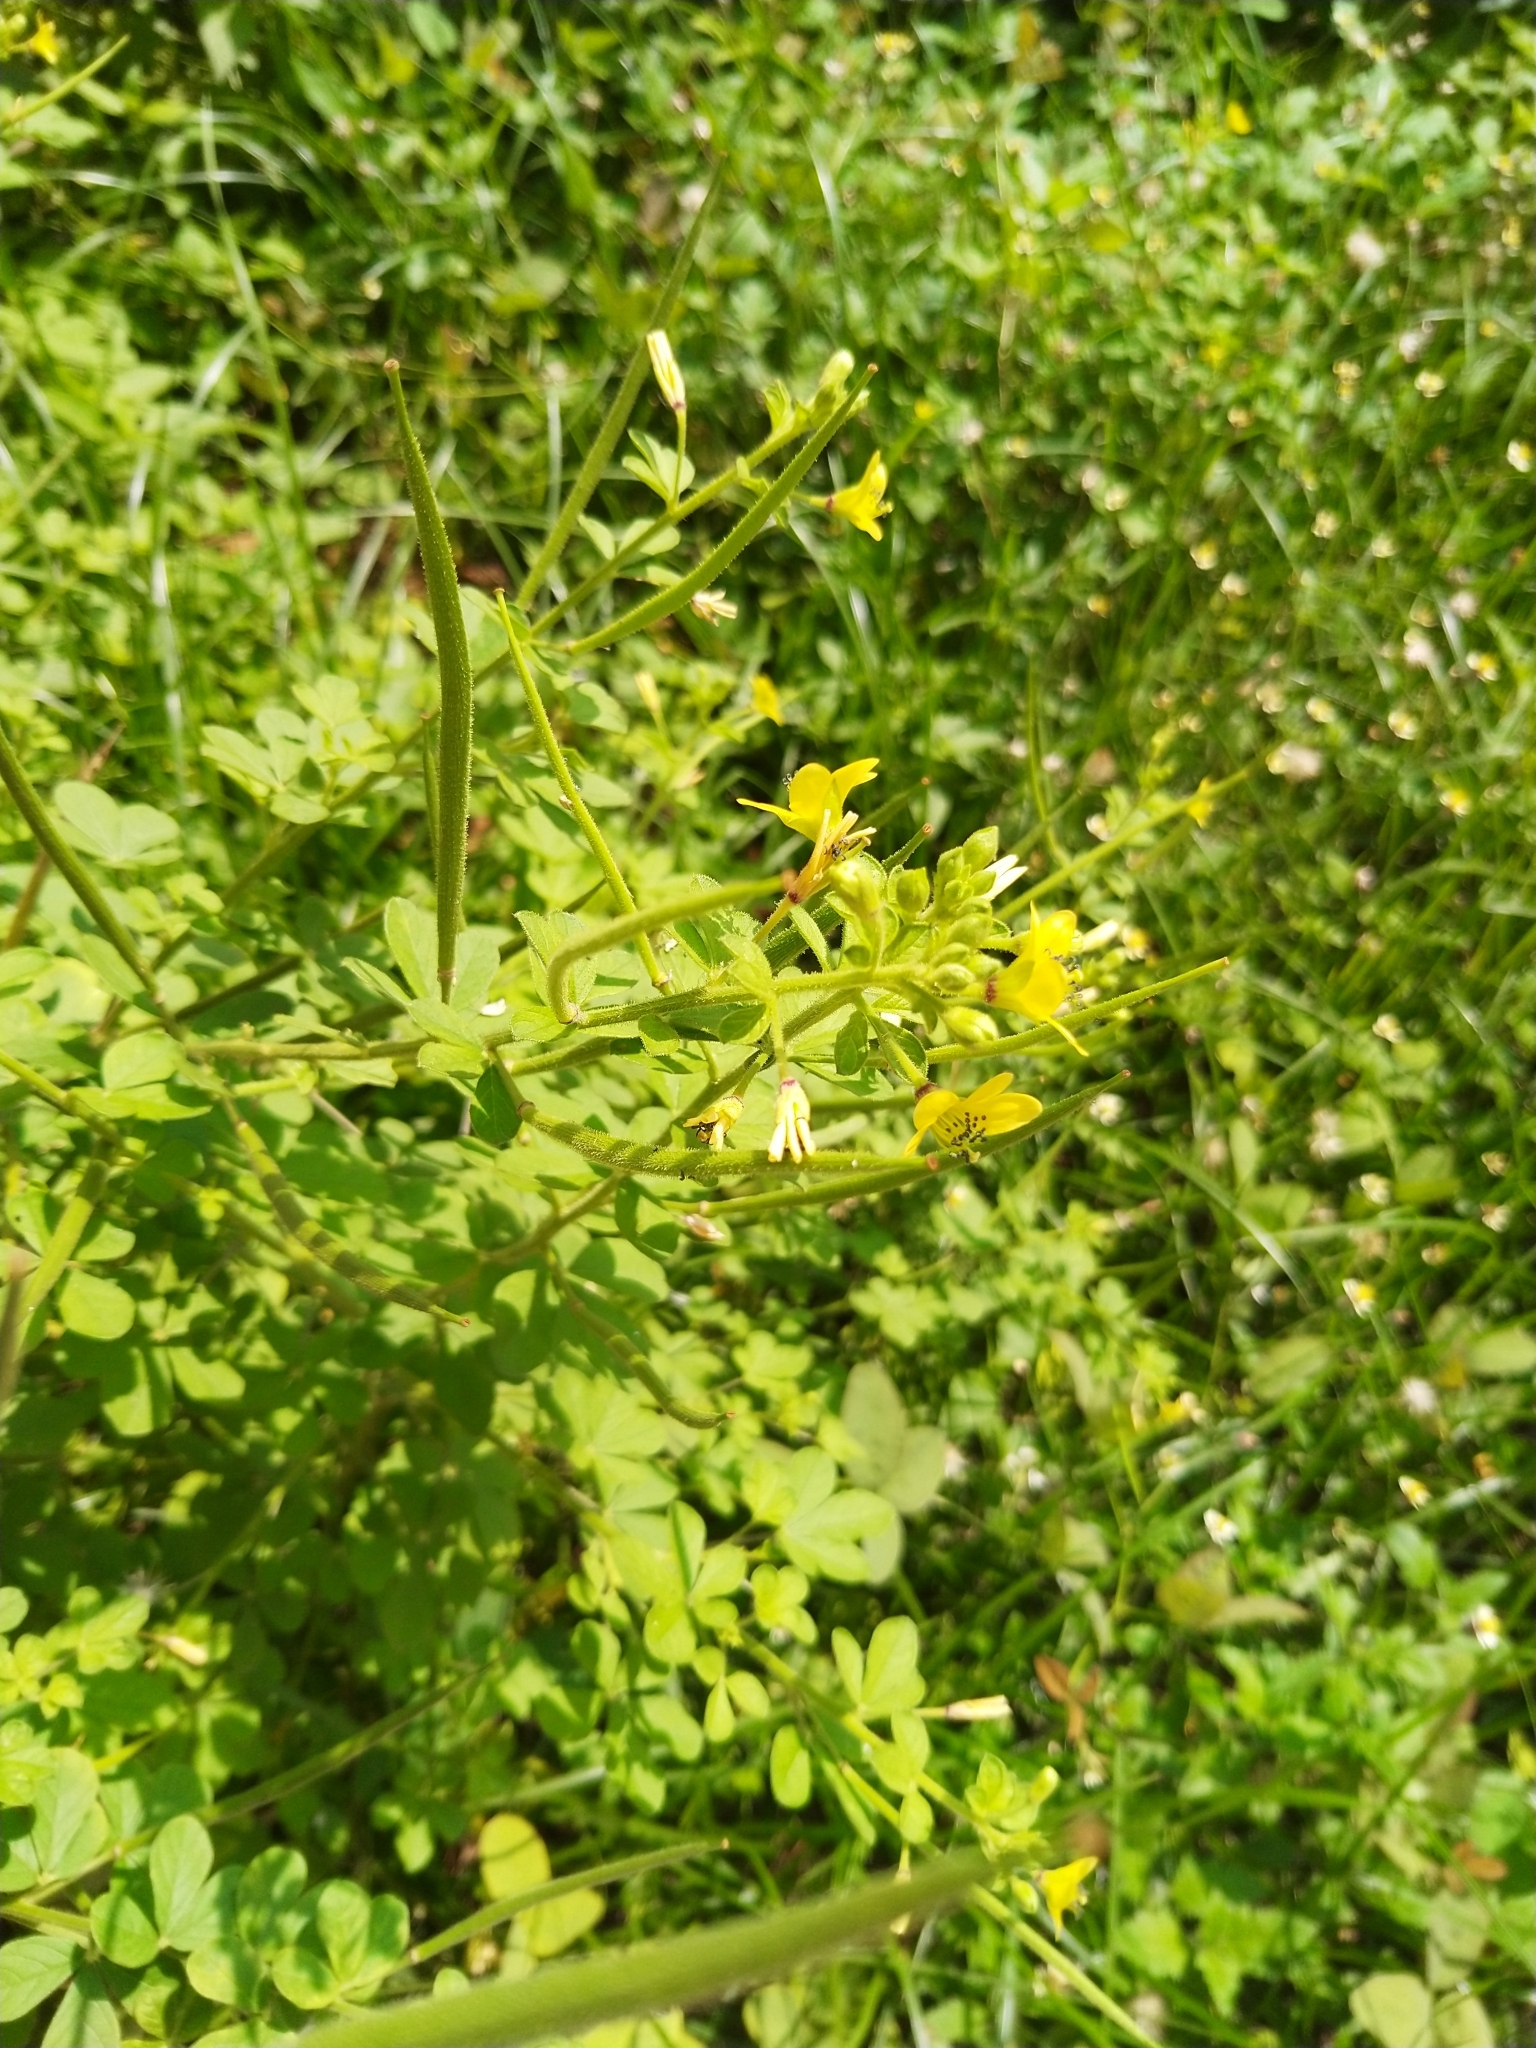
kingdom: Plantae
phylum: Tracheophyta
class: Magnoliopsida
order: Brassicales
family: Cleomaceae
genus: Arivela
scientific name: Arivela viscosa
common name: Asian spiderflower
